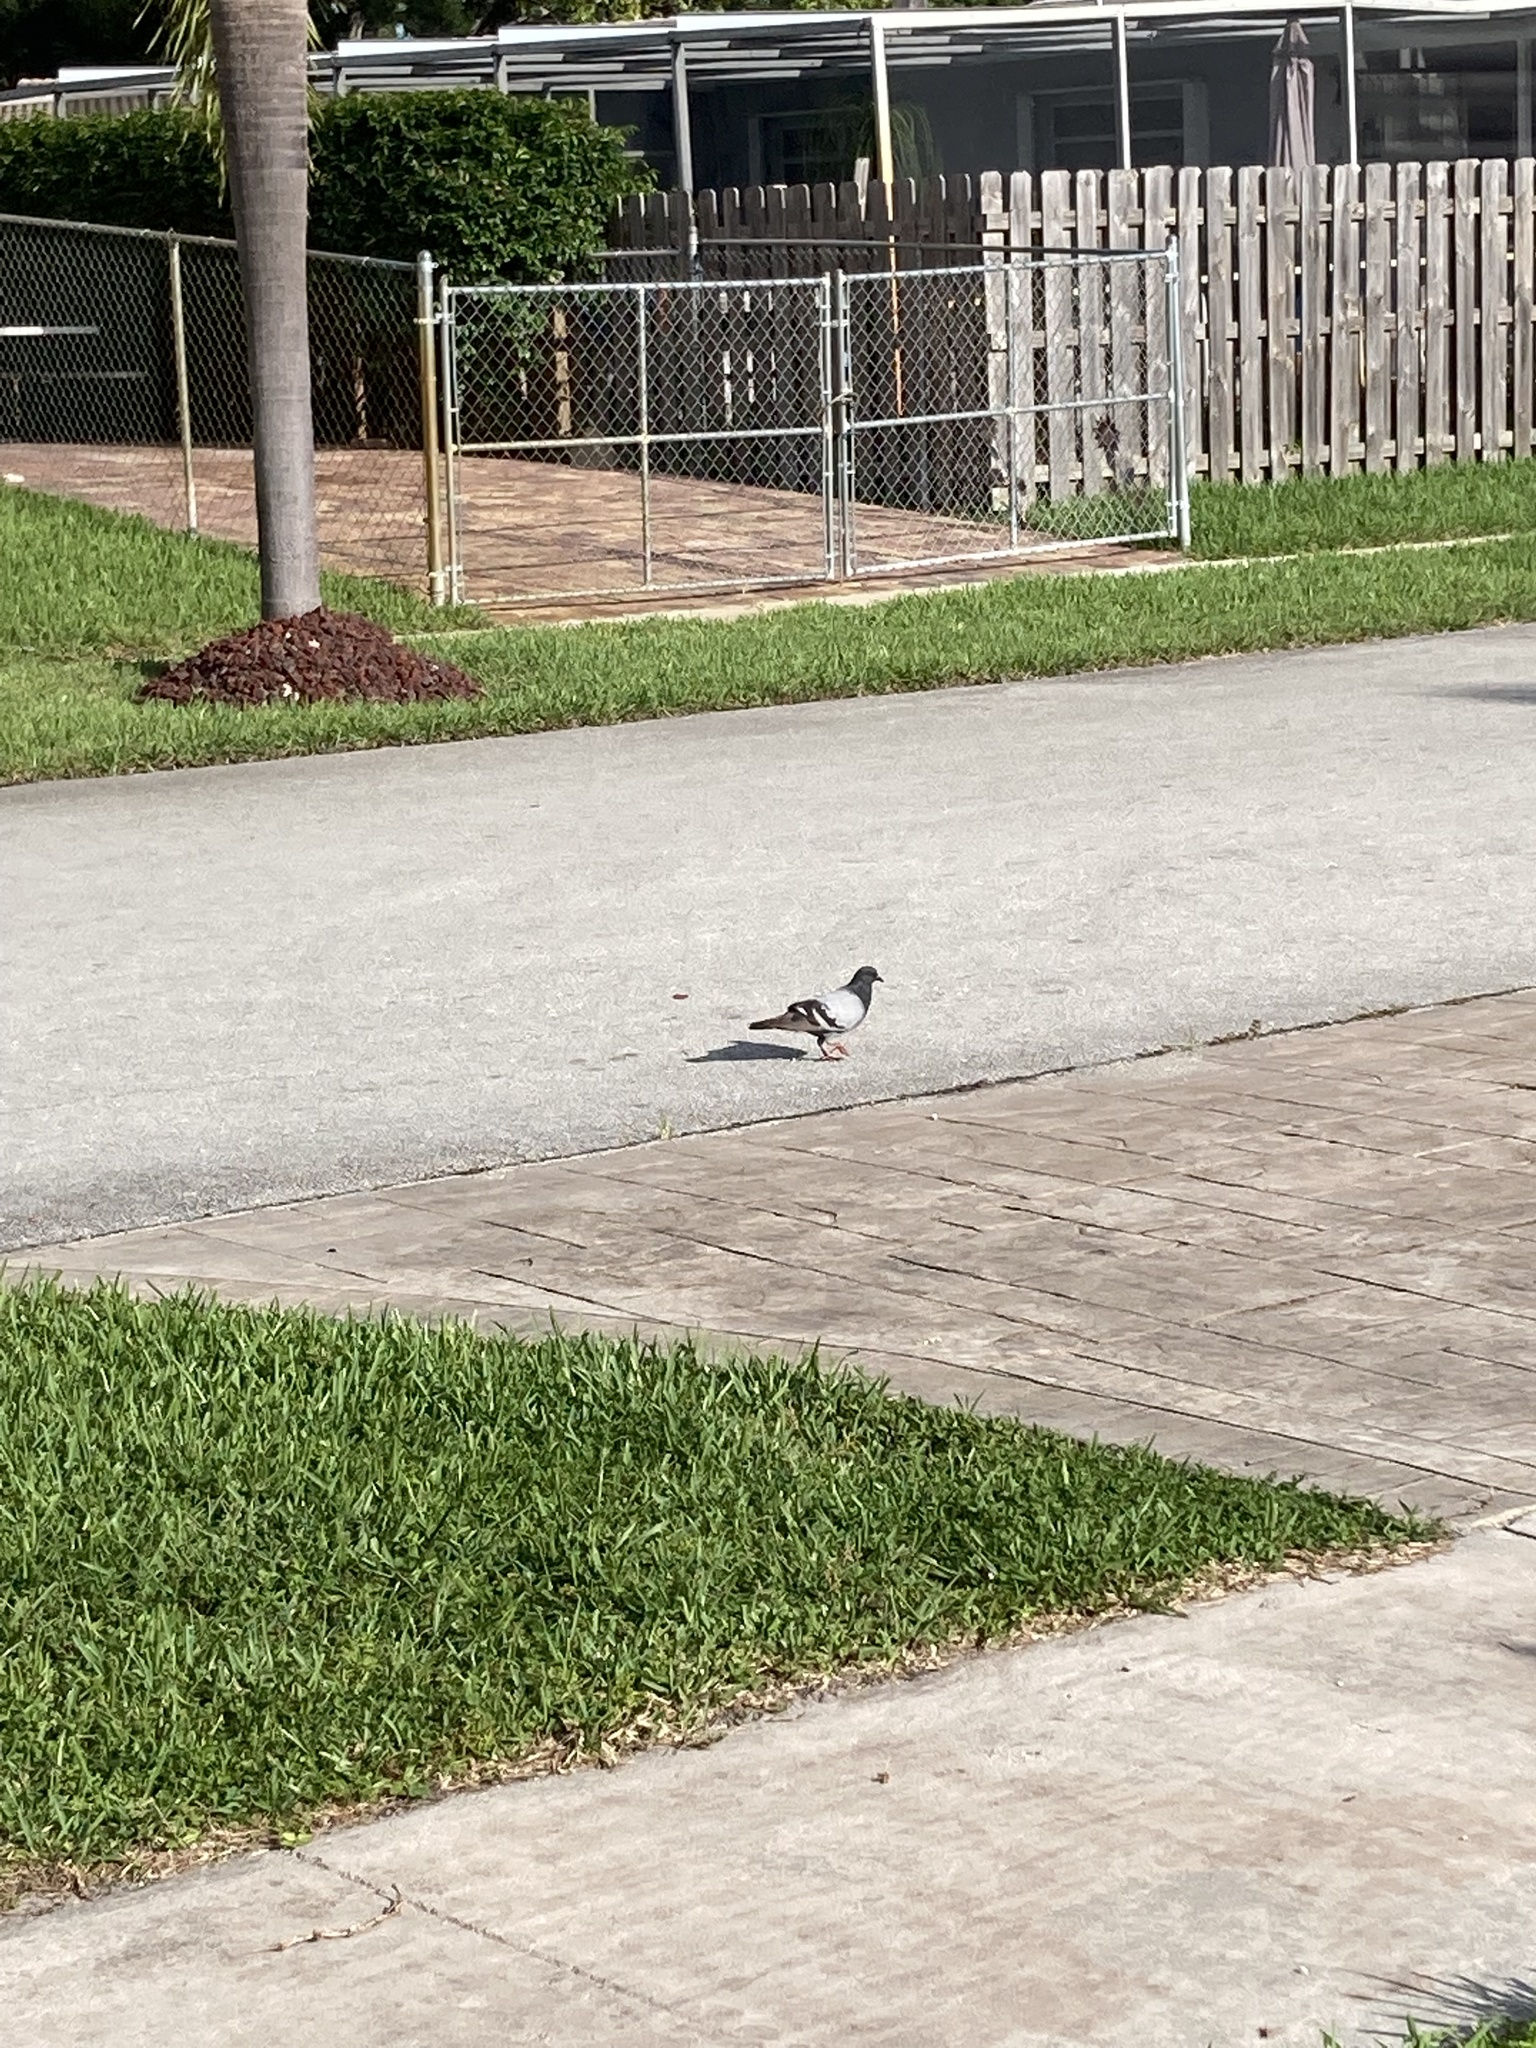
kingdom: Animalia
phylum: Chordata
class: Aves
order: Columbiformes
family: Columbidae
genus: Columba
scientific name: Columba livia
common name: Rock pigeon
